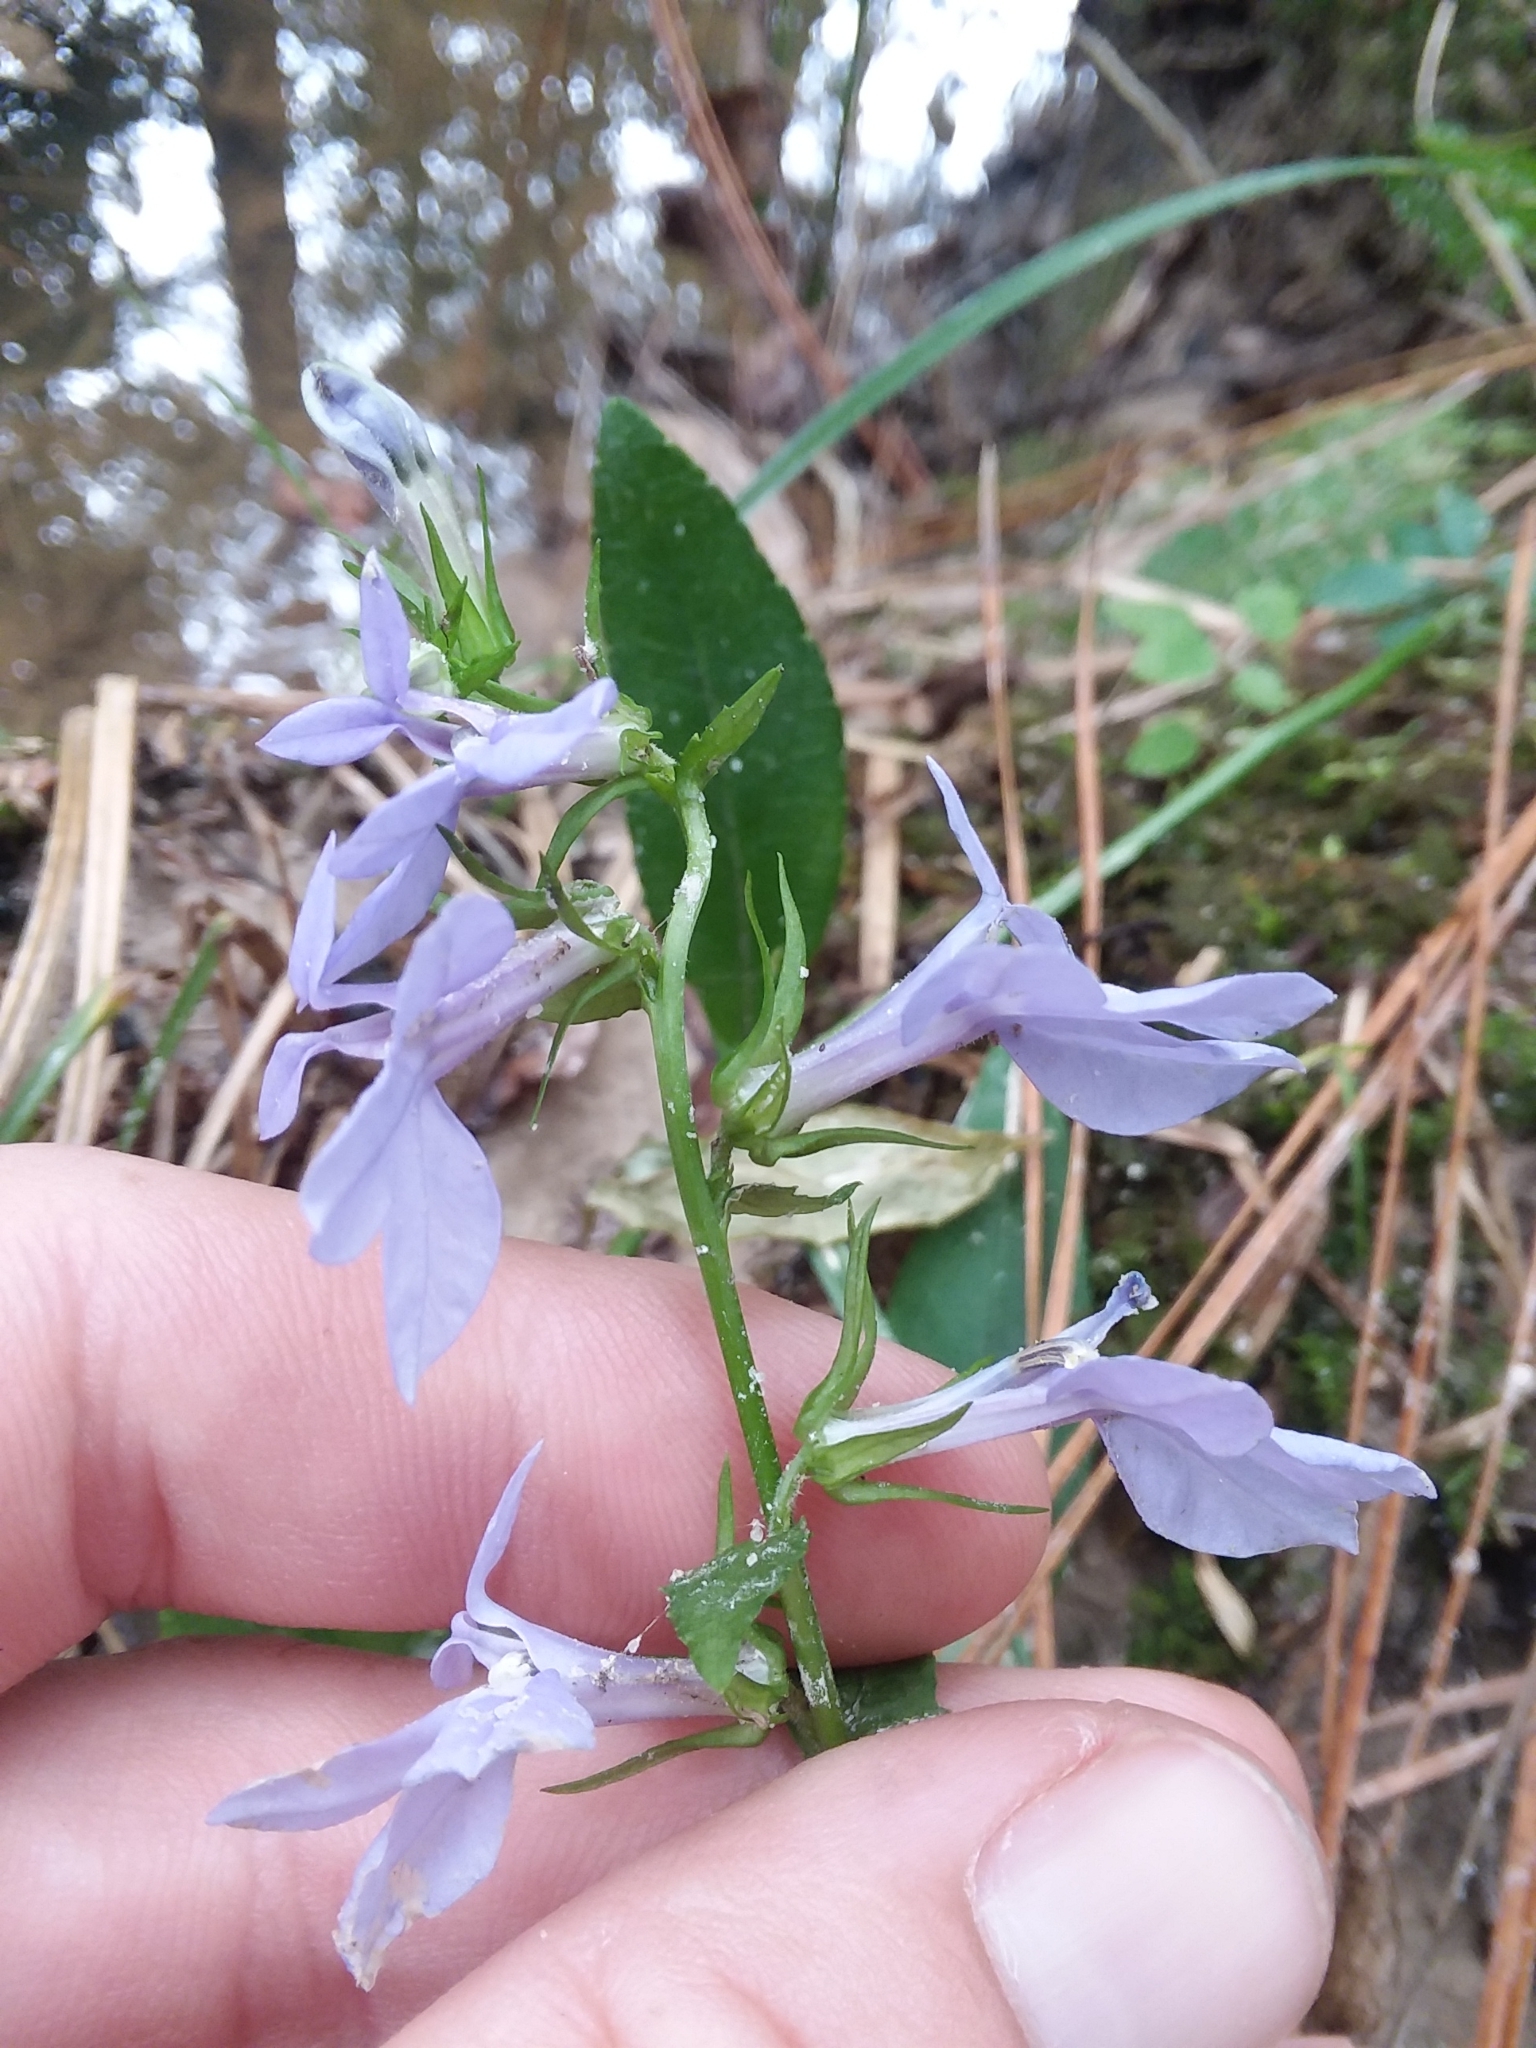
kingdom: Plantae
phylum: Tracheophyta
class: Magnoliopsida
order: Asterales
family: Campanulaceae
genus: Lobelia
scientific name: Lobelia rogersii
